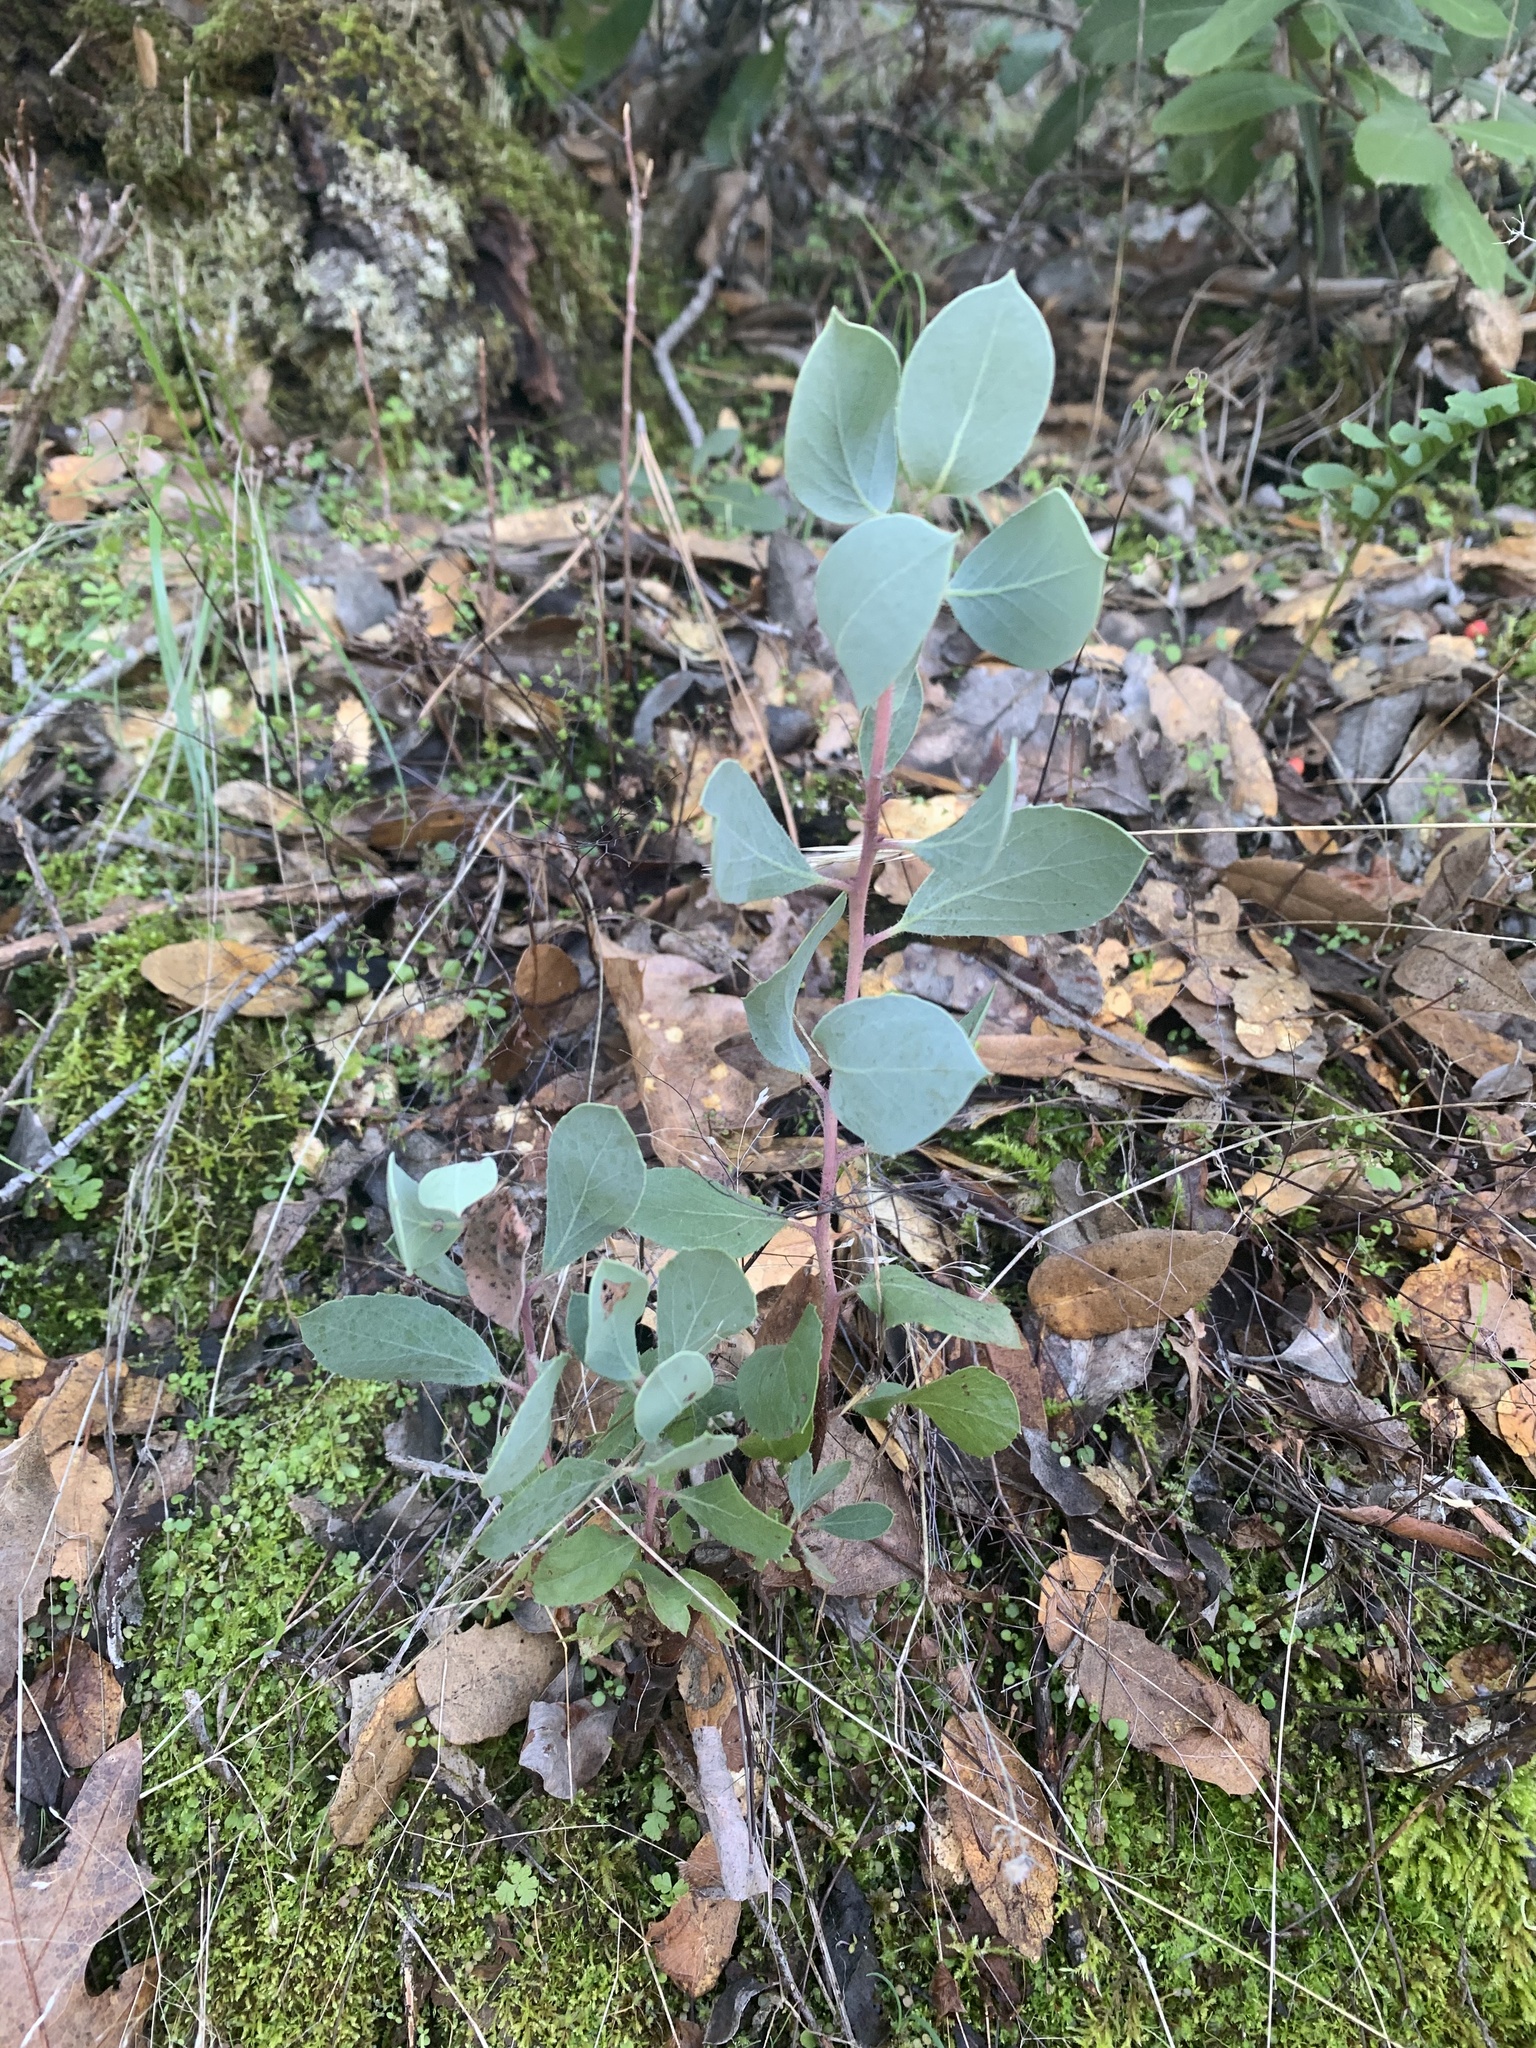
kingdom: Plantae
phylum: Tracheophyta
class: Magnoliopsida
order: Ericales
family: Ericaceae
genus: Arctostaphylos
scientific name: Arctostaphylos viscida
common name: White-leaf manzanita
